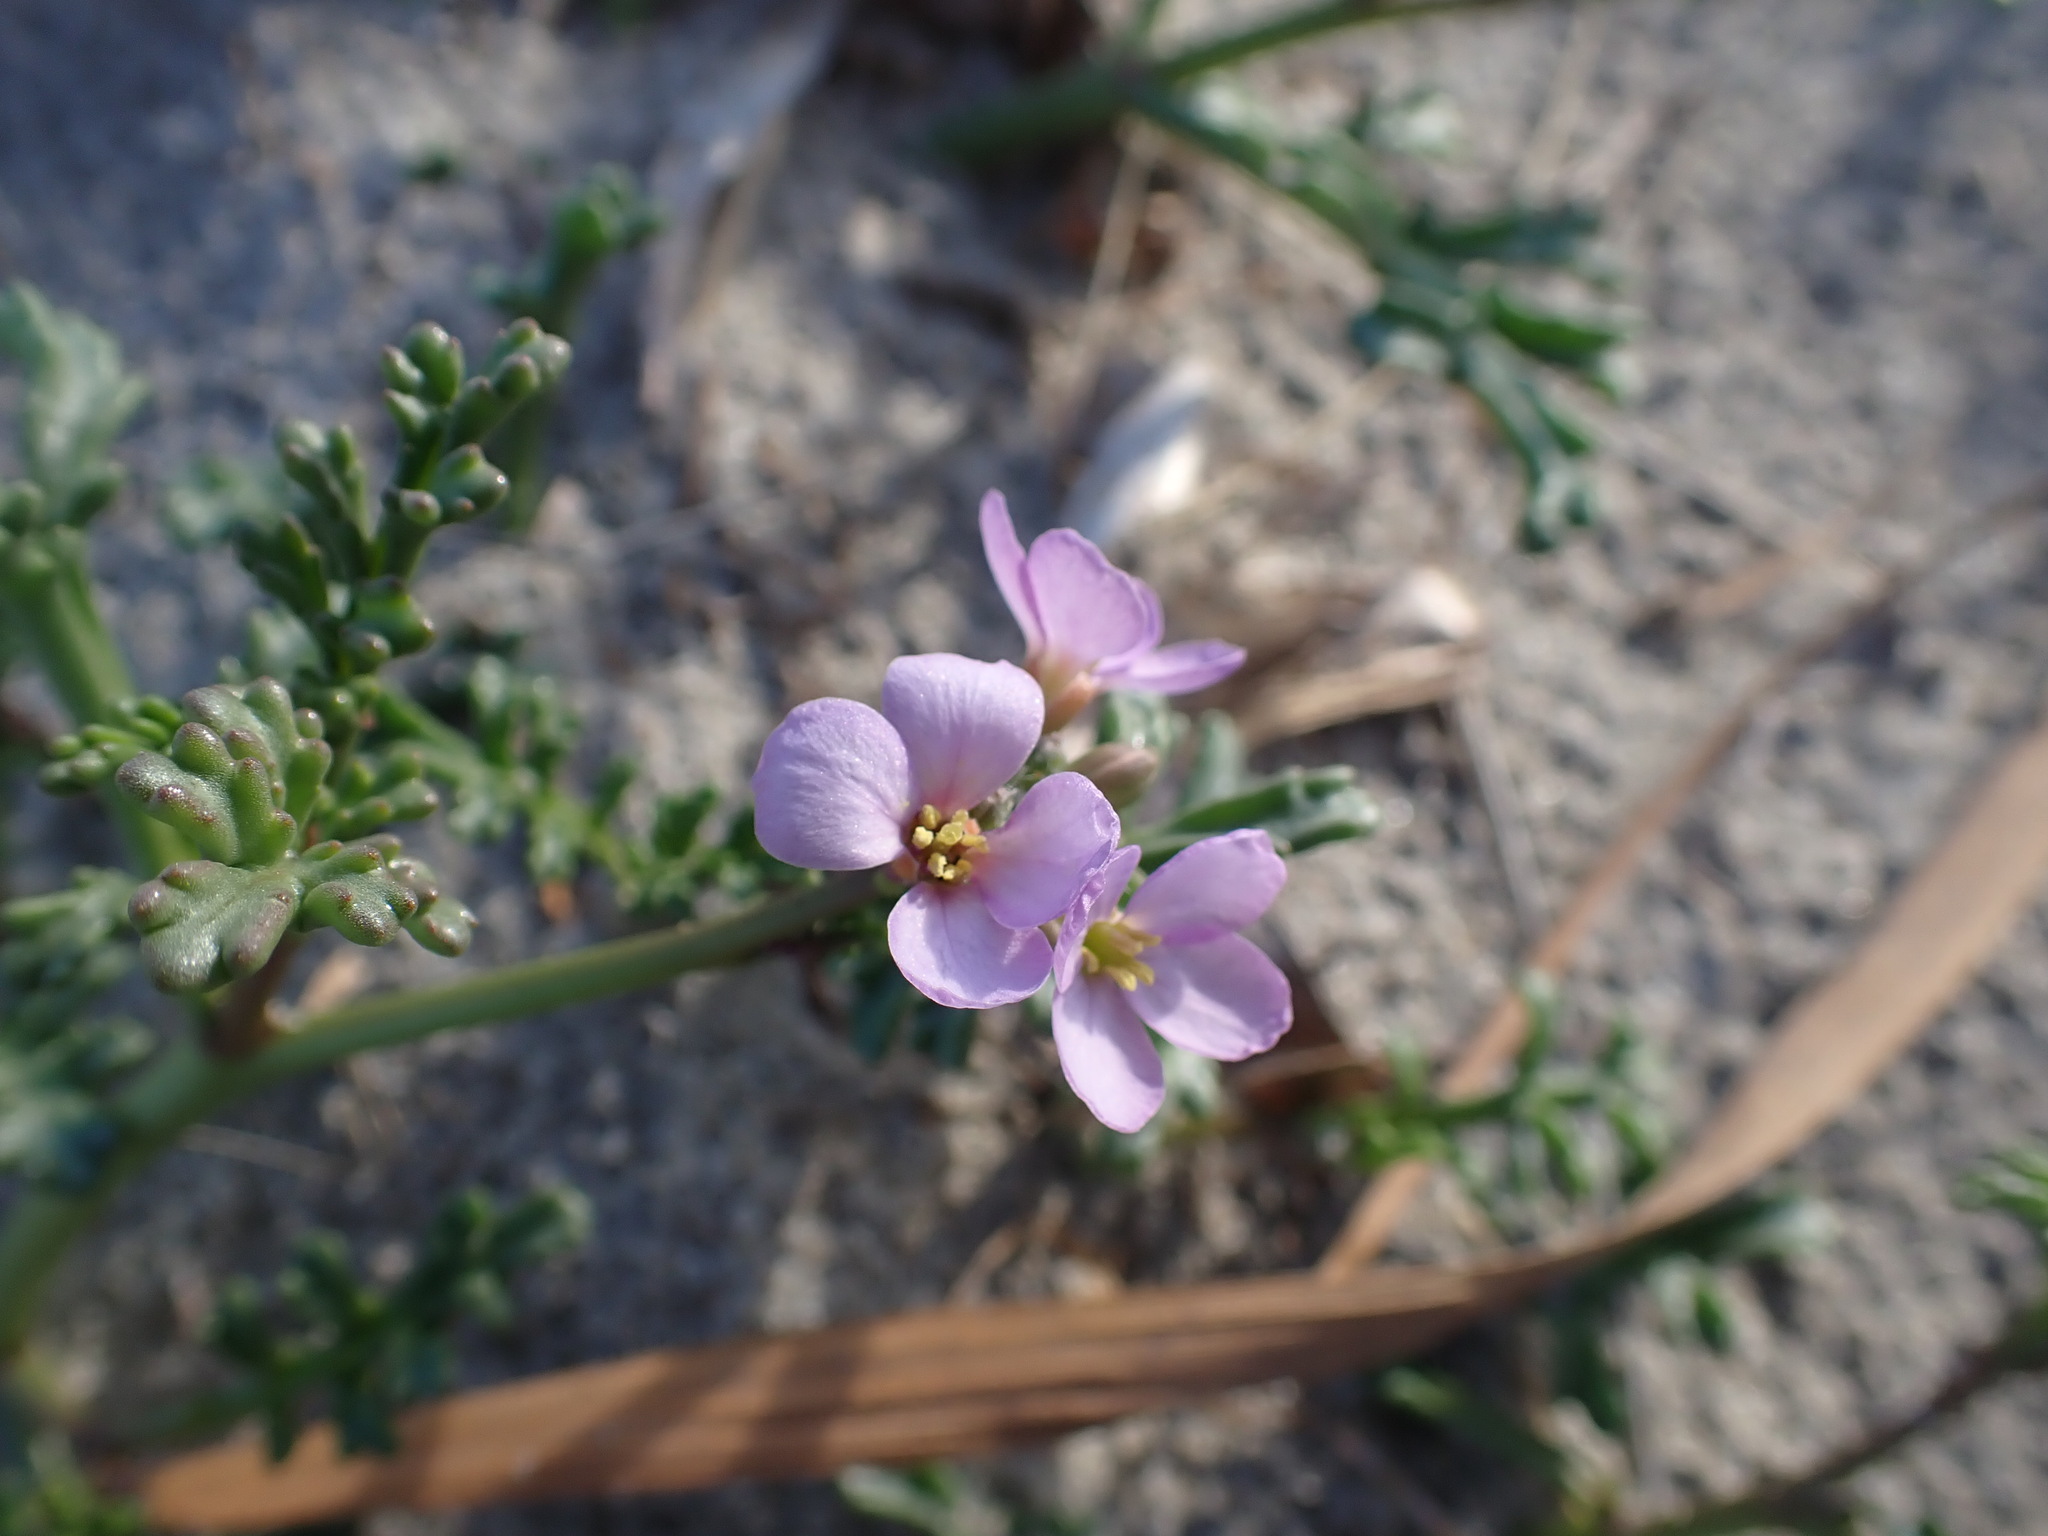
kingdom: Plantae
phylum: Tracheophyta
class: Magnoliopsida
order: Brassicales
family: Brassicaceae
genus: Cakile
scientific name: Cakile maritima
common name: Sea rocket
